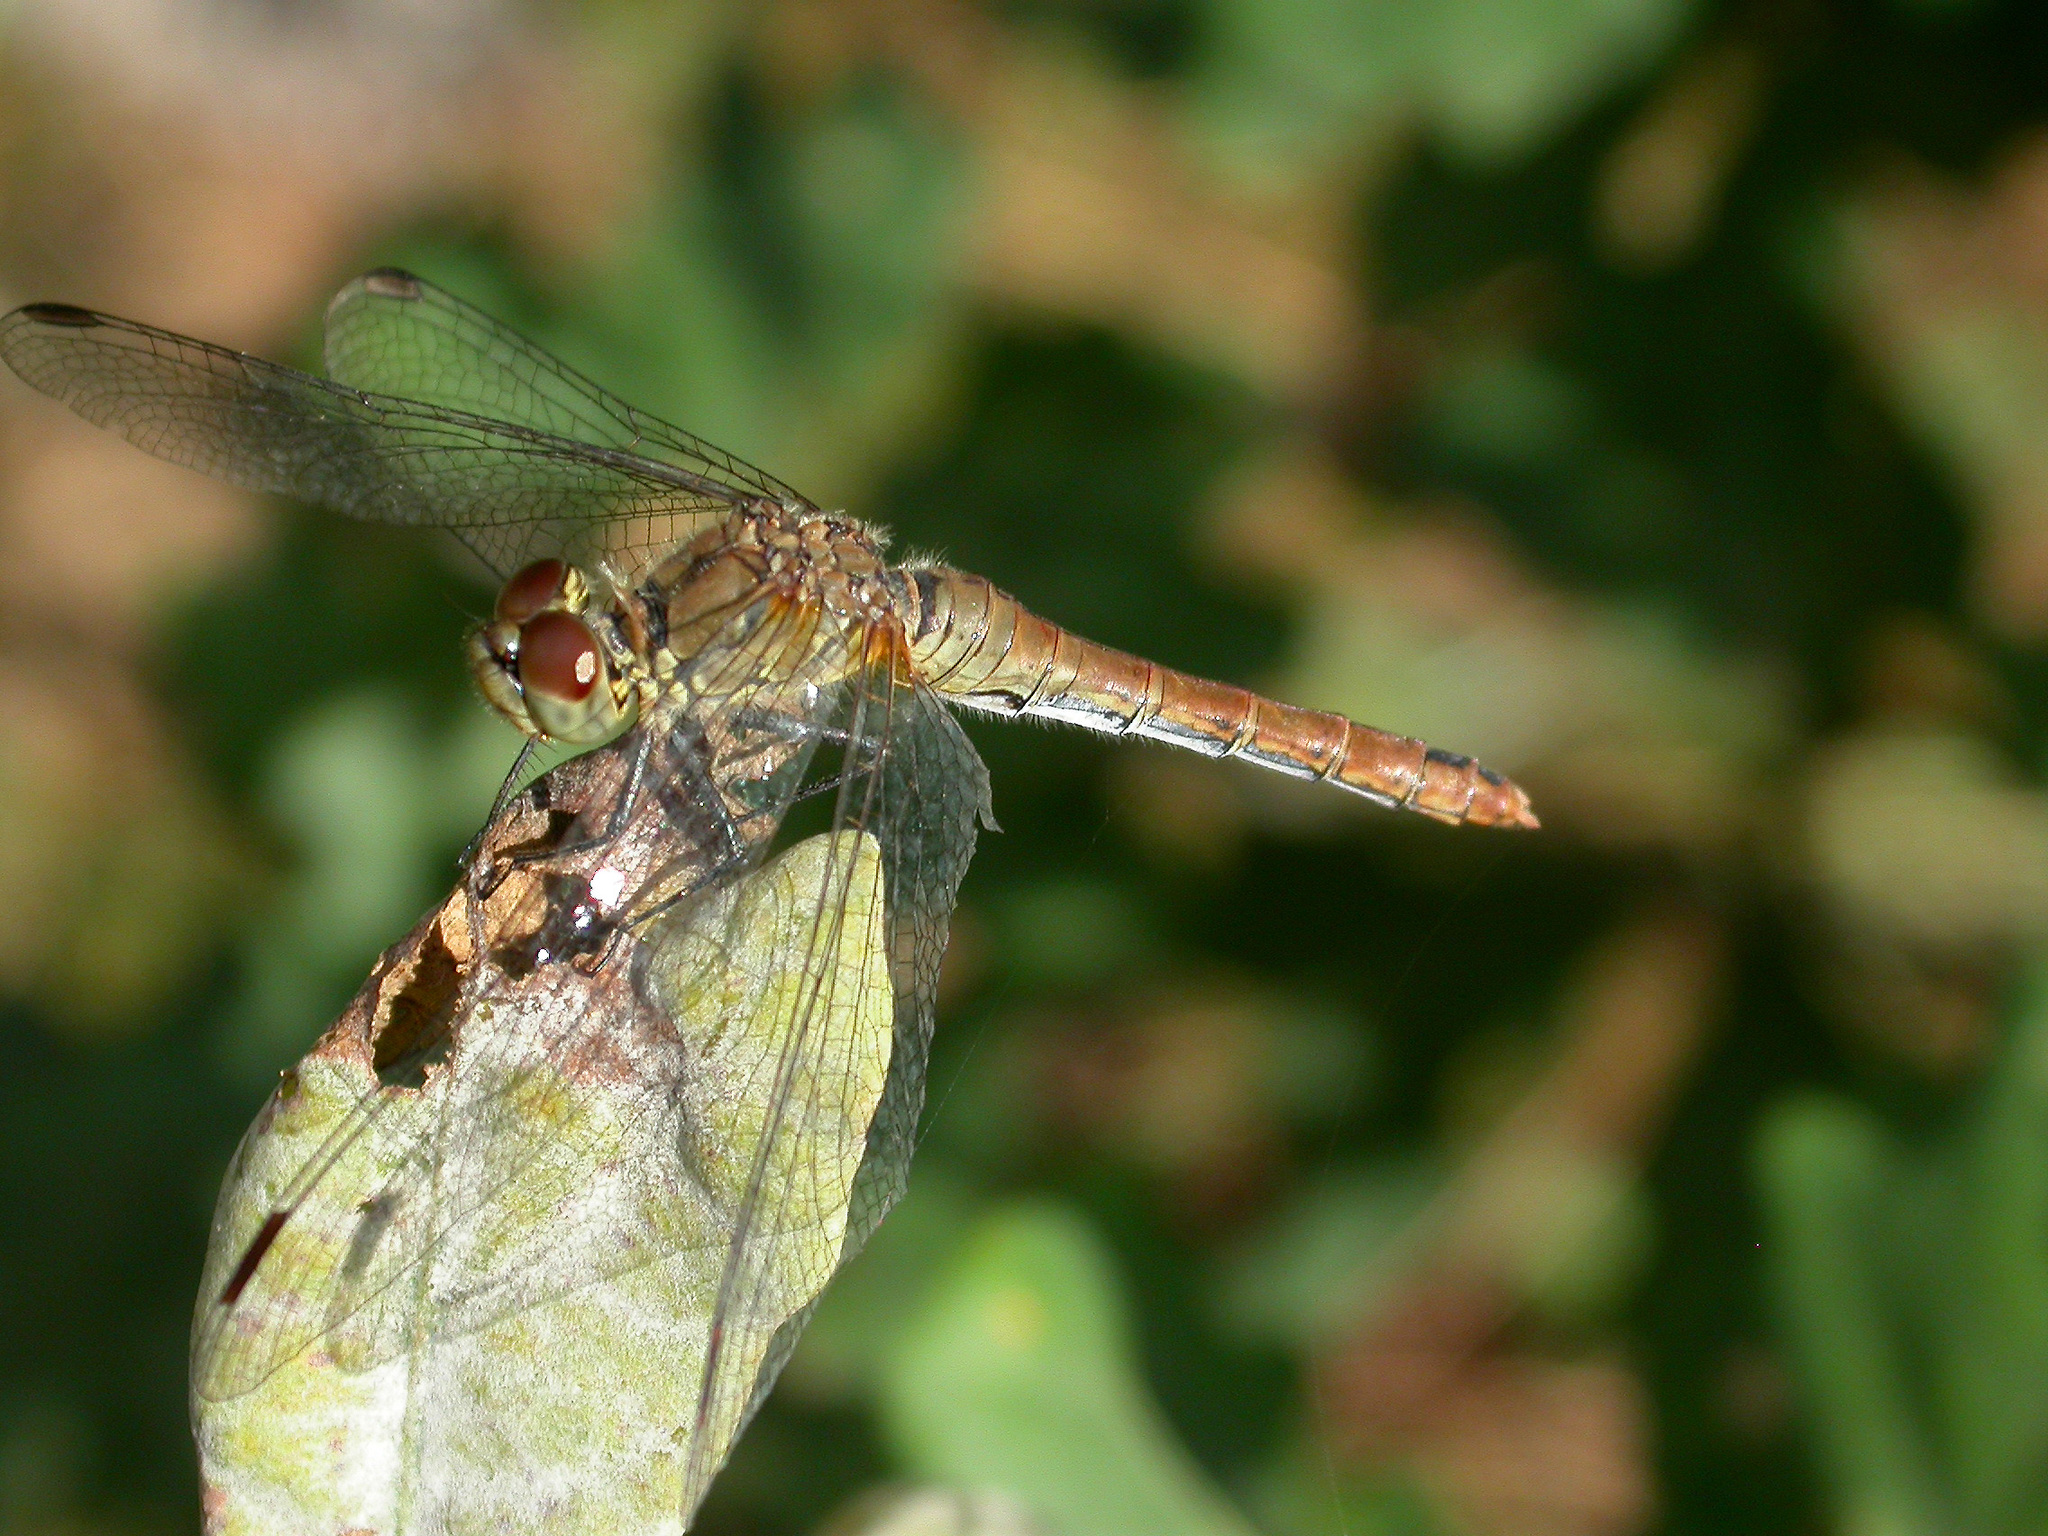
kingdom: Animalia
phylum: Arthropoda
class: Insecta
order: Odonata
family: Libellulidae
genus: Sympetrum
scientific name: Sympetrum sanguineum
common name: Ruddy darter
